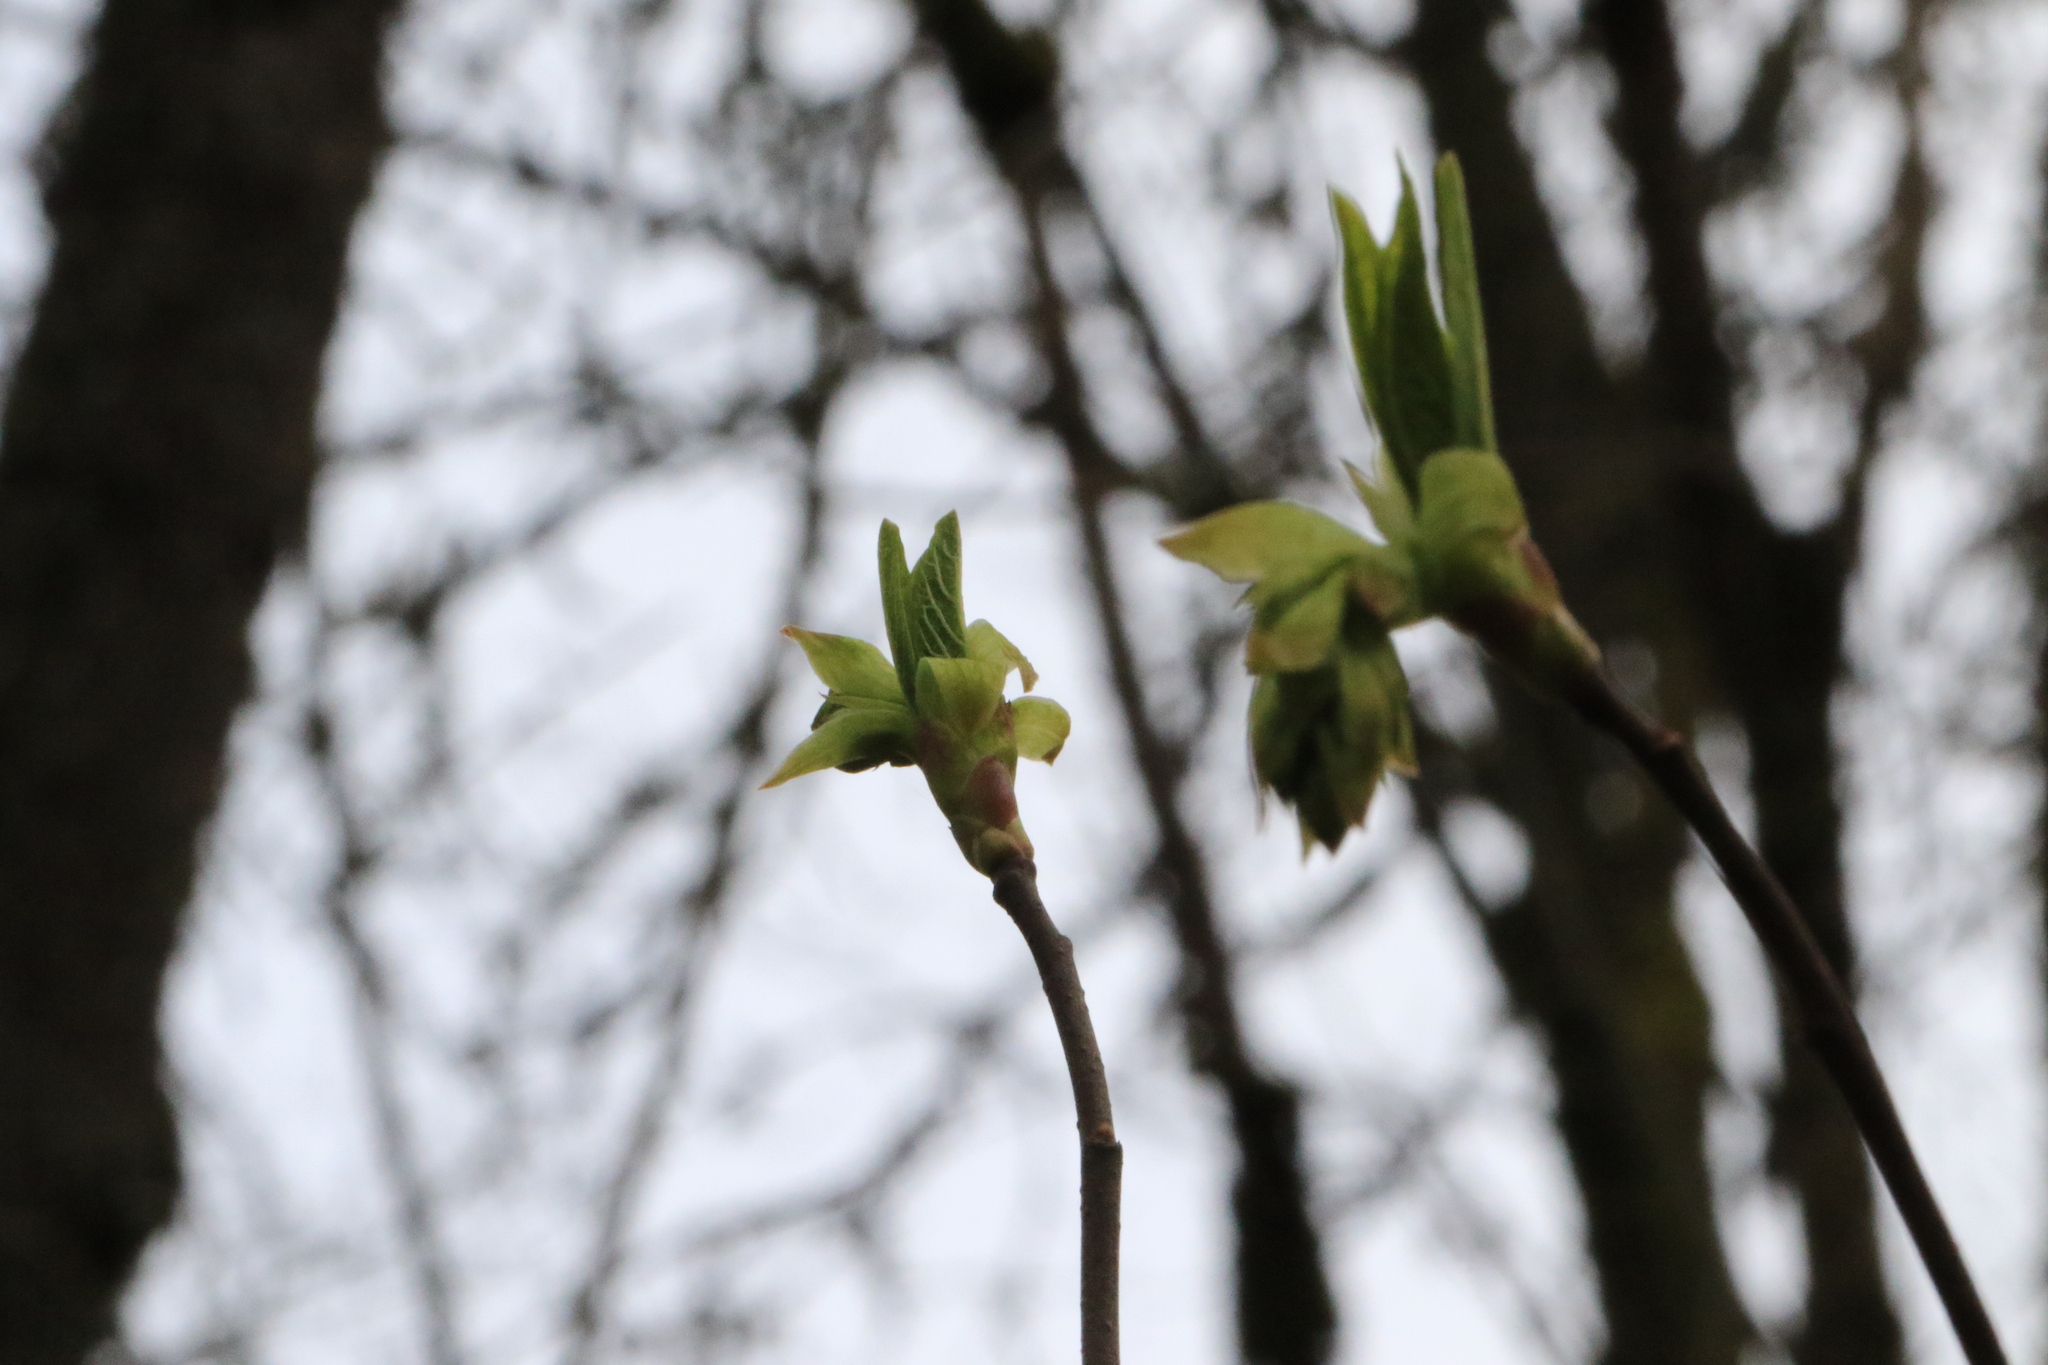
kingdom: Plantae
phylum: Tracheophyta
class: Magnoliopsida
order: Rosales
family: Rosaceae
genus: Oemleria
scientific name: Oemleria cerasiformis
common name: Osoberry
